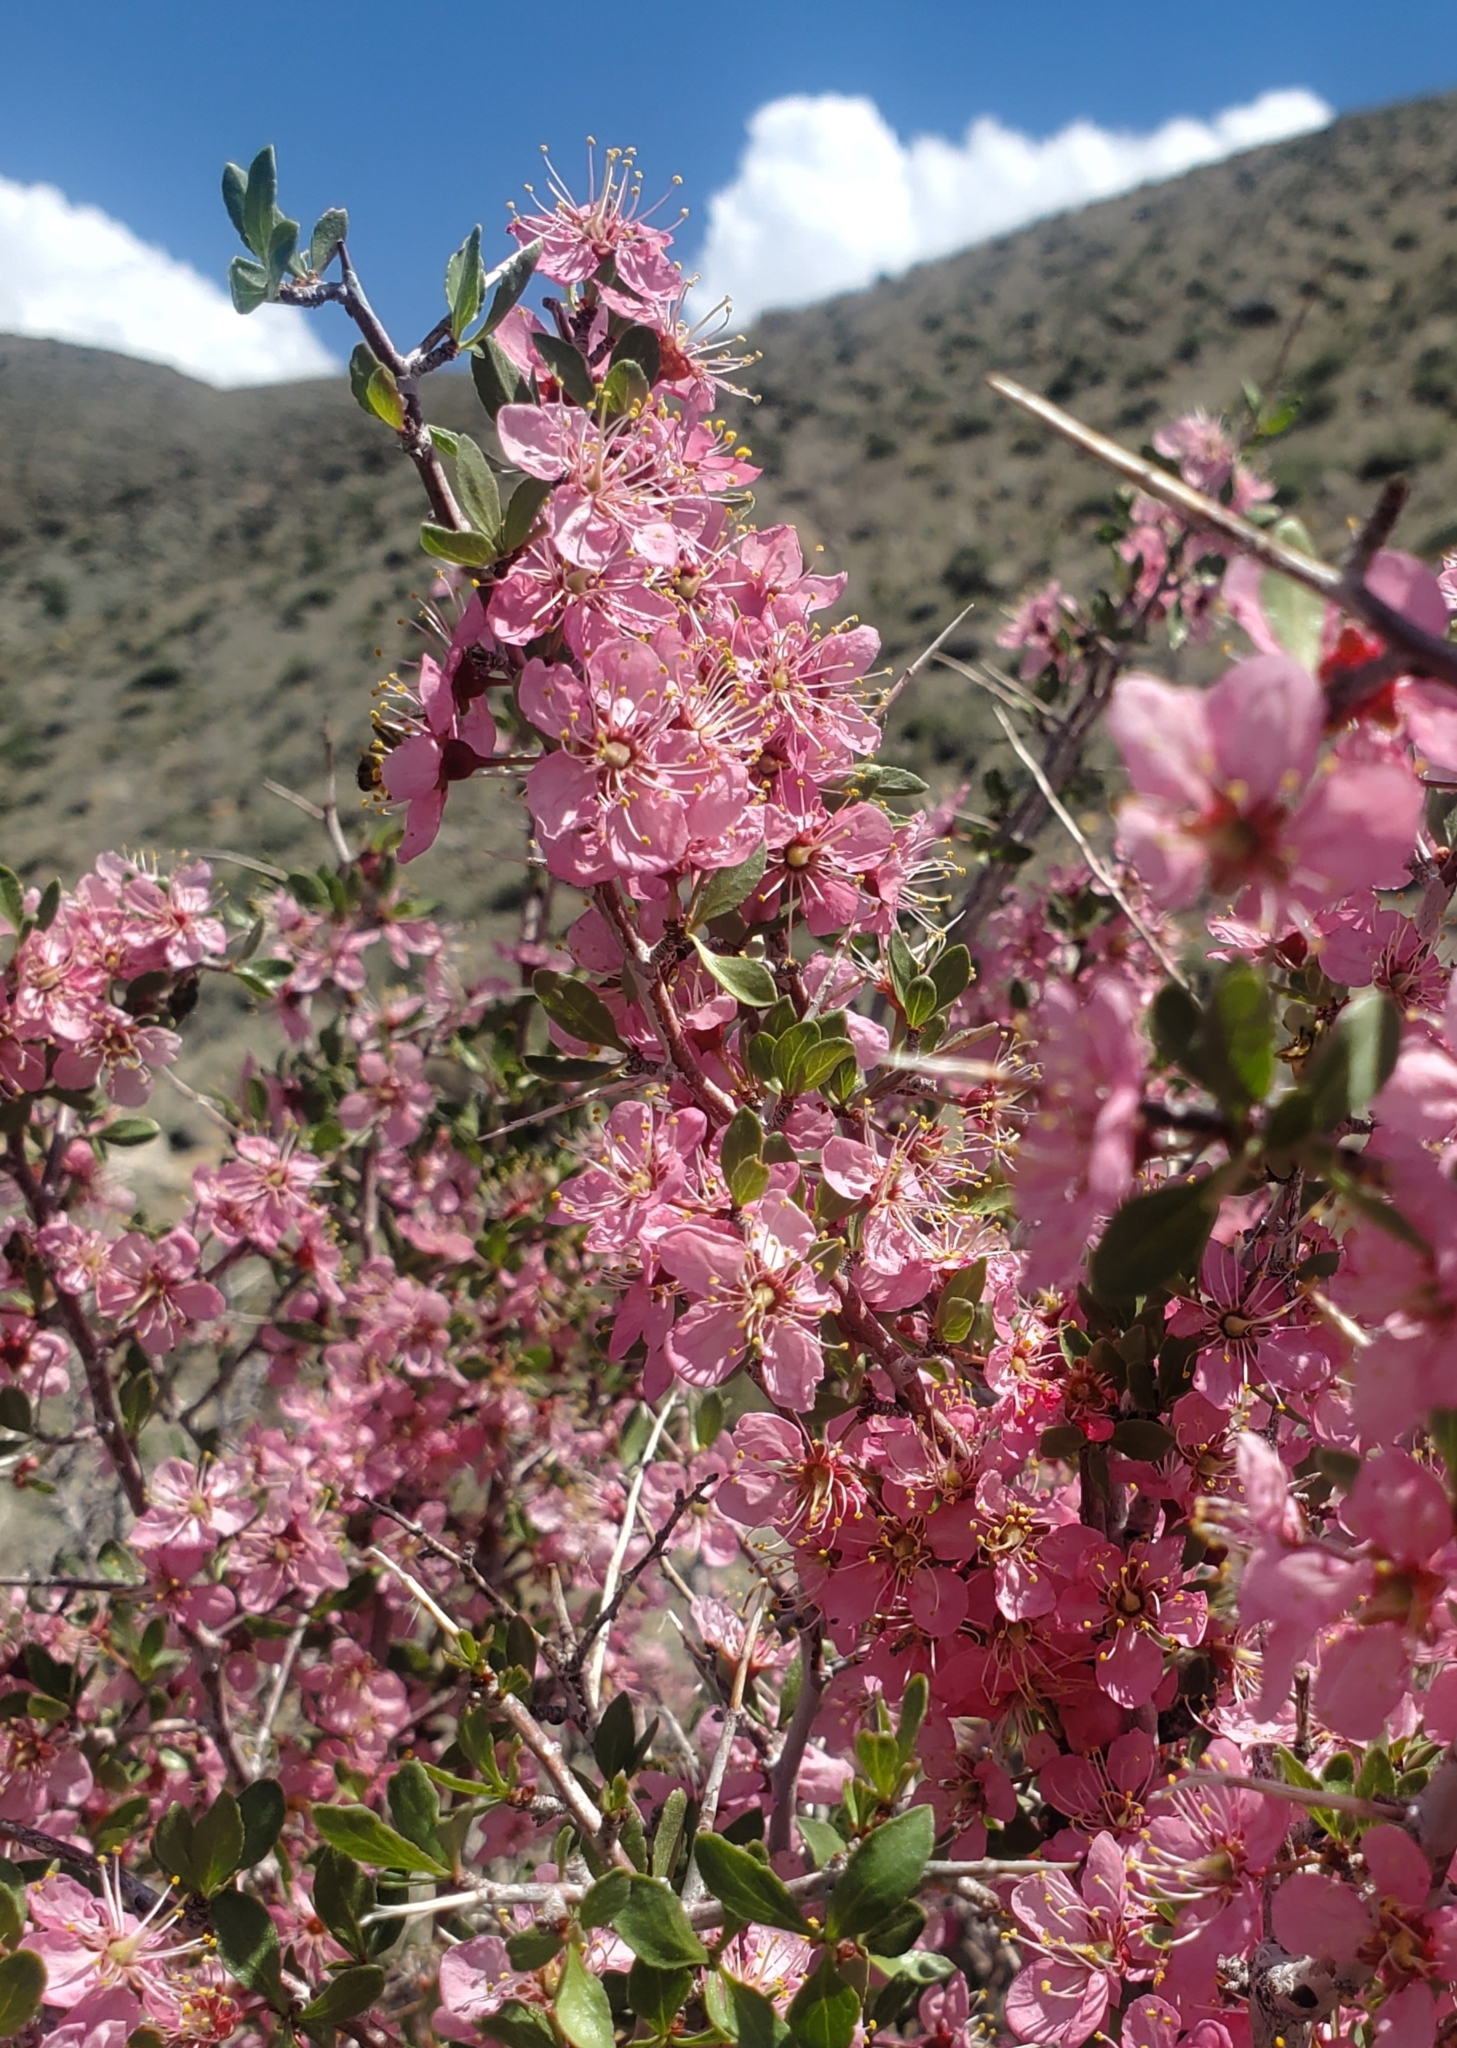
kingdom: Plantae
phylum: Tracheophyta
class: Magnoliopsida
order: Rosales
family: Rosaceae
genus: Prunus
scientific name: Prunus andersonii
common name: Desert peach
